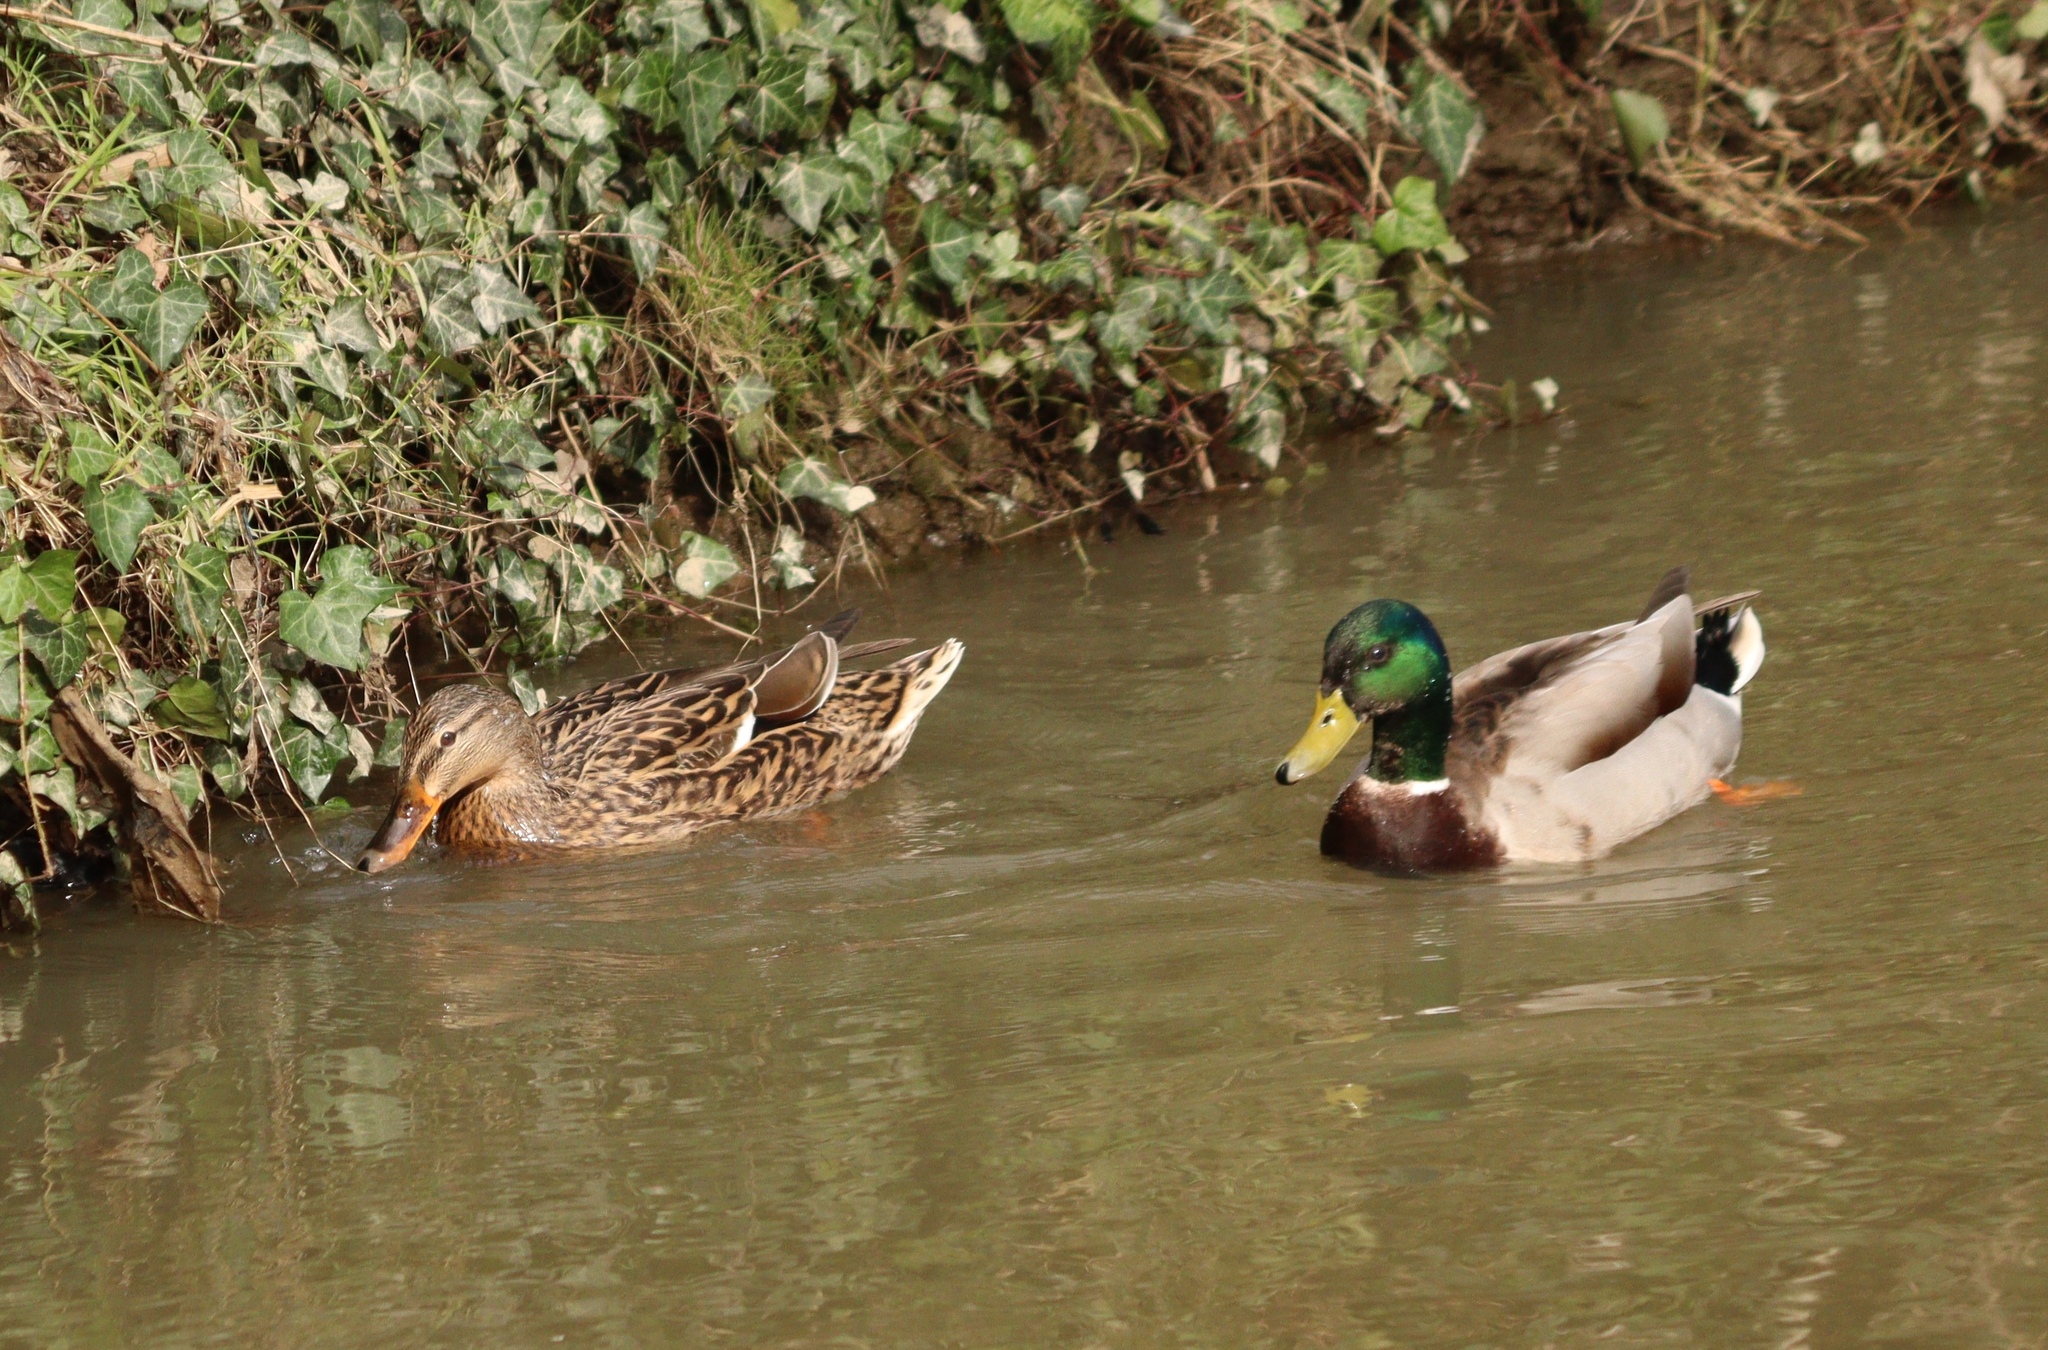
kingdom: Animalia
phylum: Chordata
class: Aves
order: Anseriformes
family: Anatidae
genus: Anas
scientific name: Anas platyrhynchos
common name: Mallard
